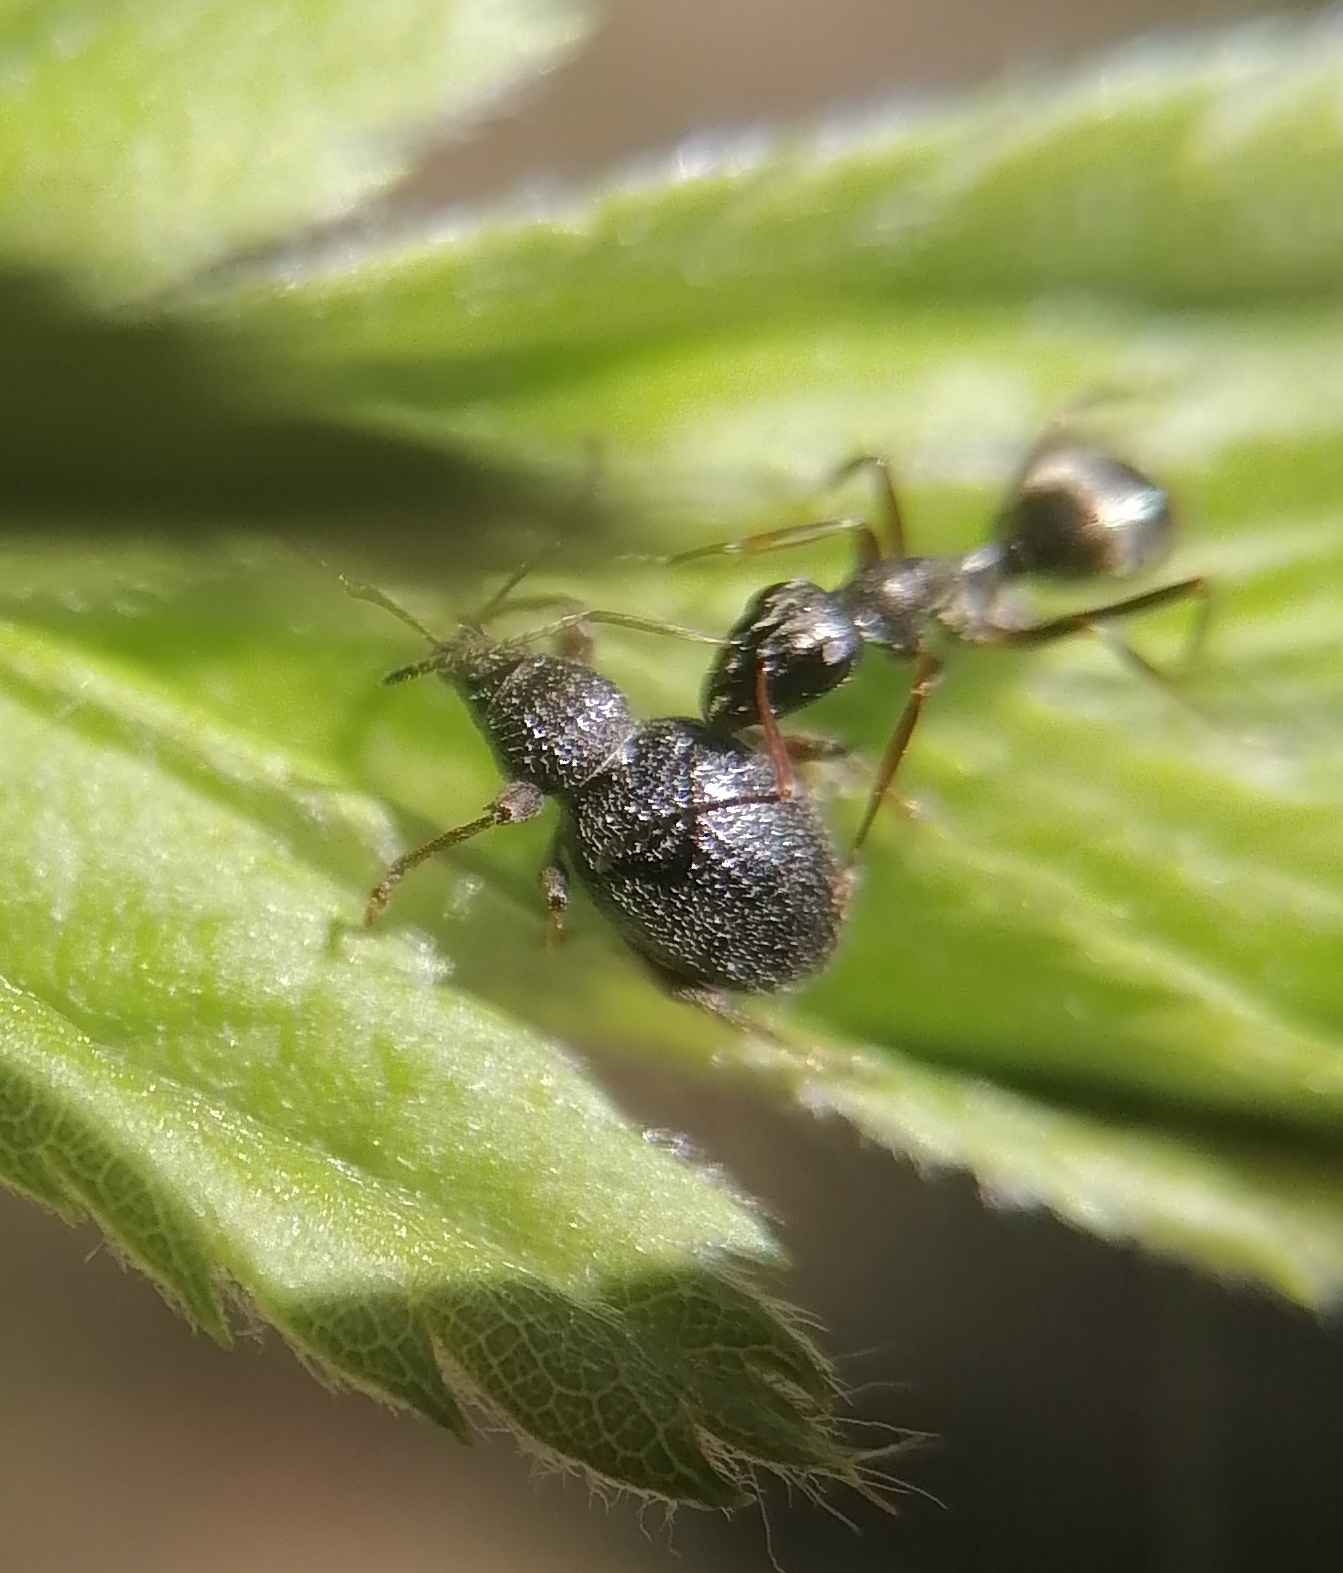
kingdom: Animalia
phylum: Arthropoda
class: Insecta
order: Coleoptera
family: Curculionidae
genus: Otiorhynchus
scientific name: Otiorhynchus ovatus
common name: Strawberry root weevil
